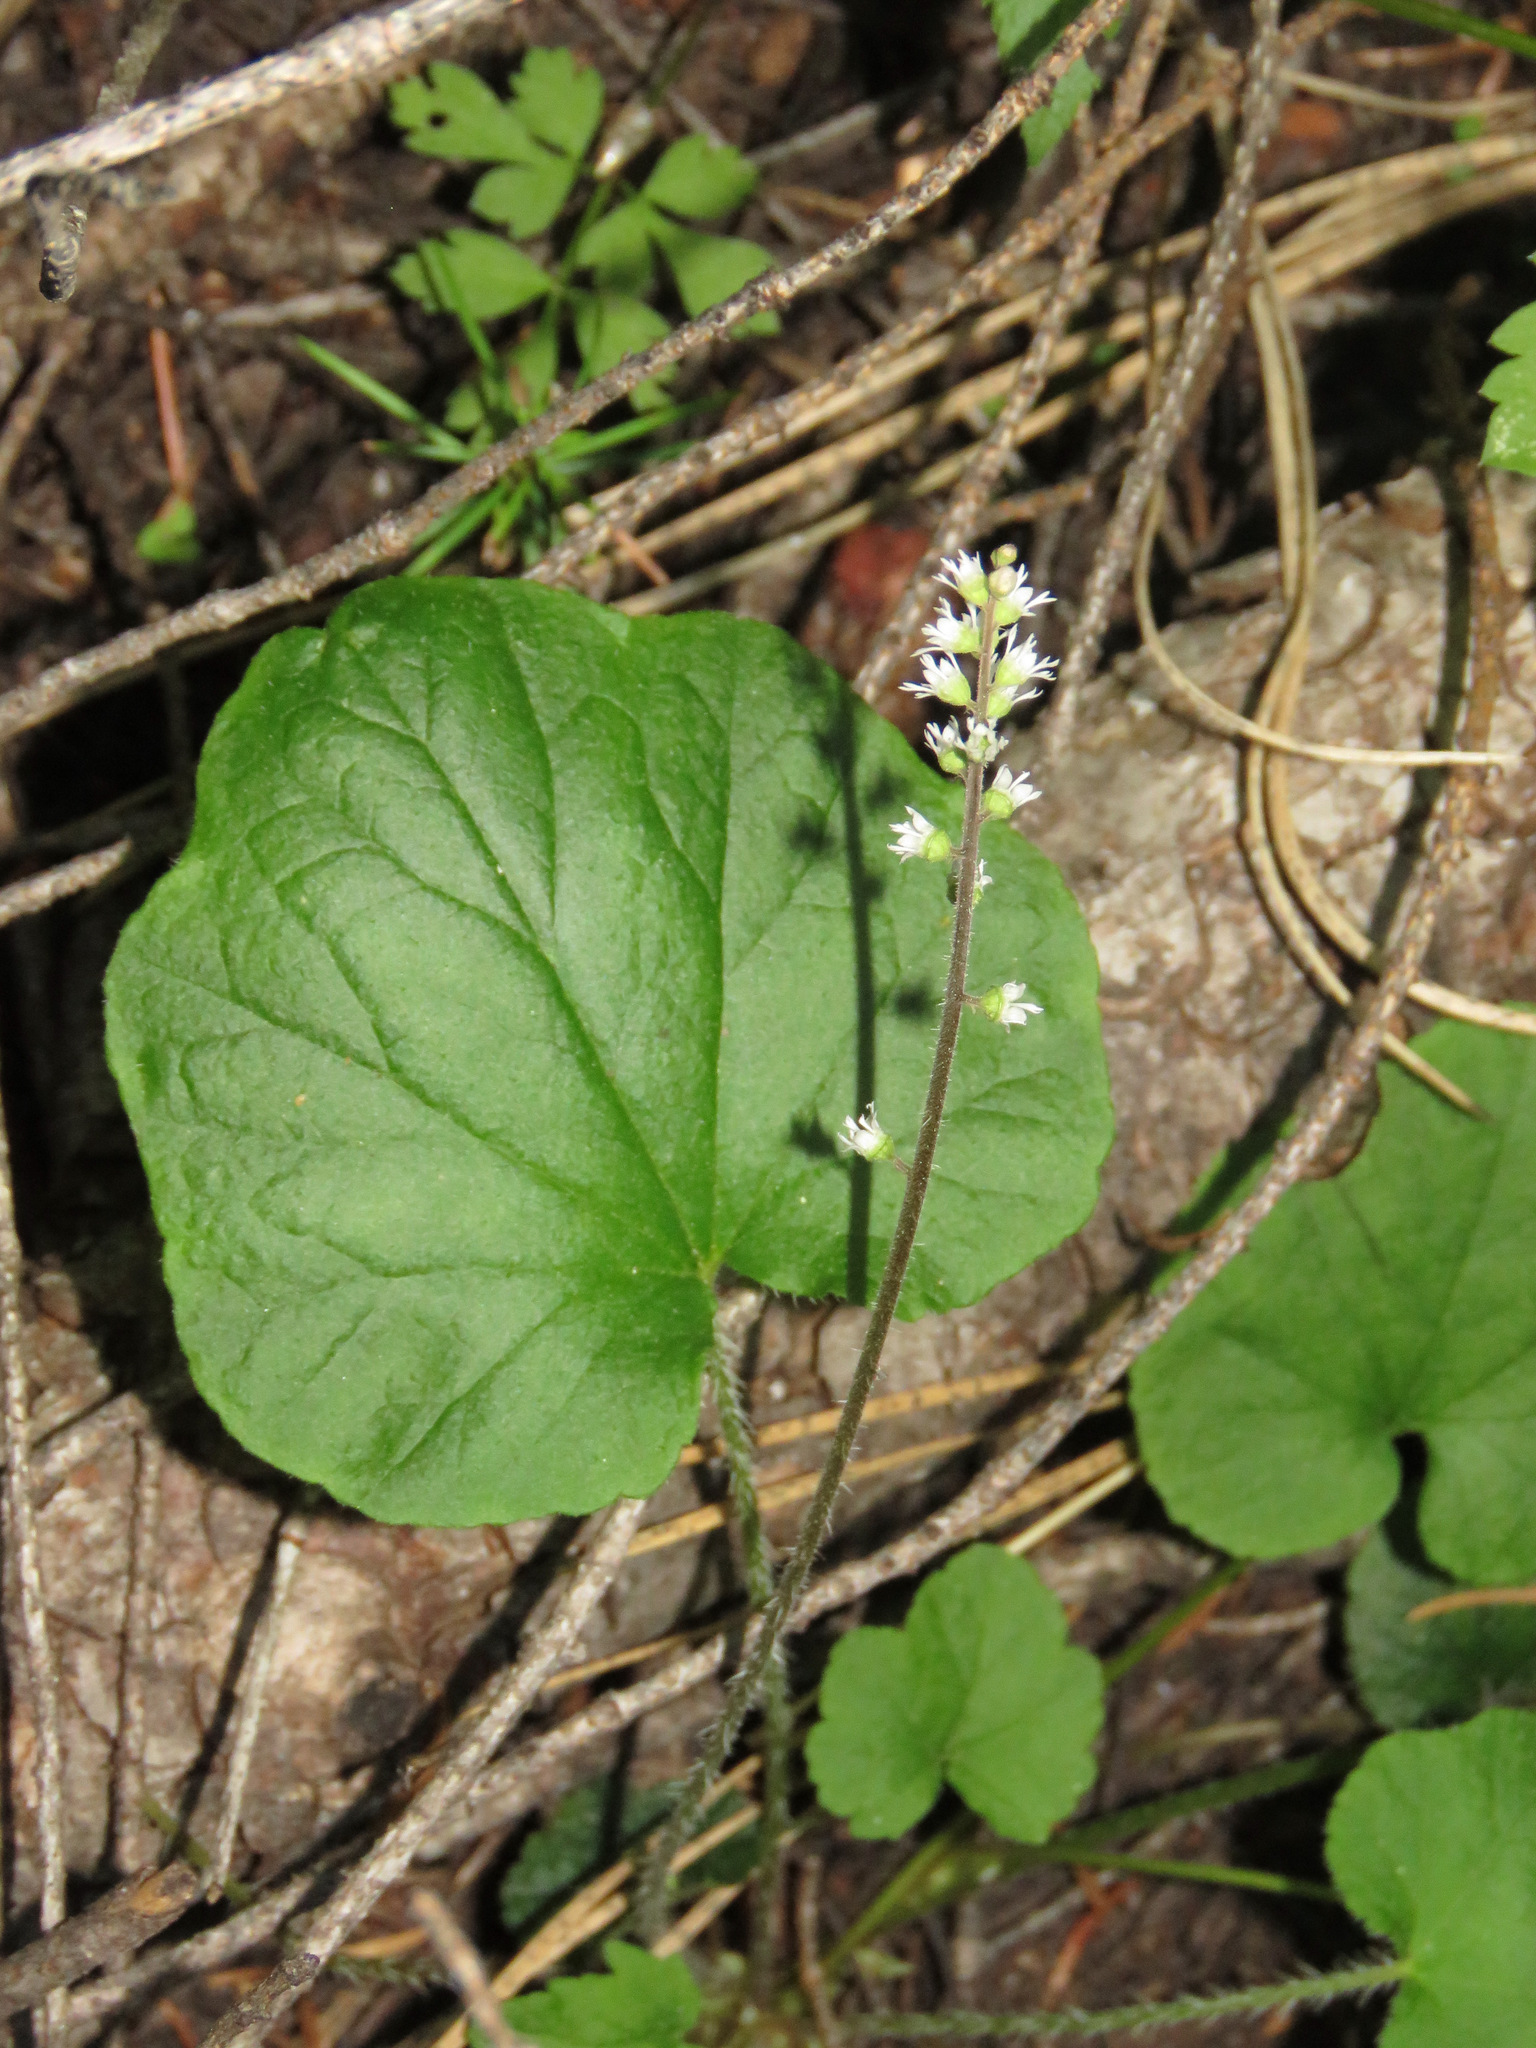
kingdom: Plantae
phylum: Tracheophyta
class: Magnoliopsida
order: Saxifragales
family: Saxifragaceae
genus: Ozomelis
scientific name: Ozomelis trifida
